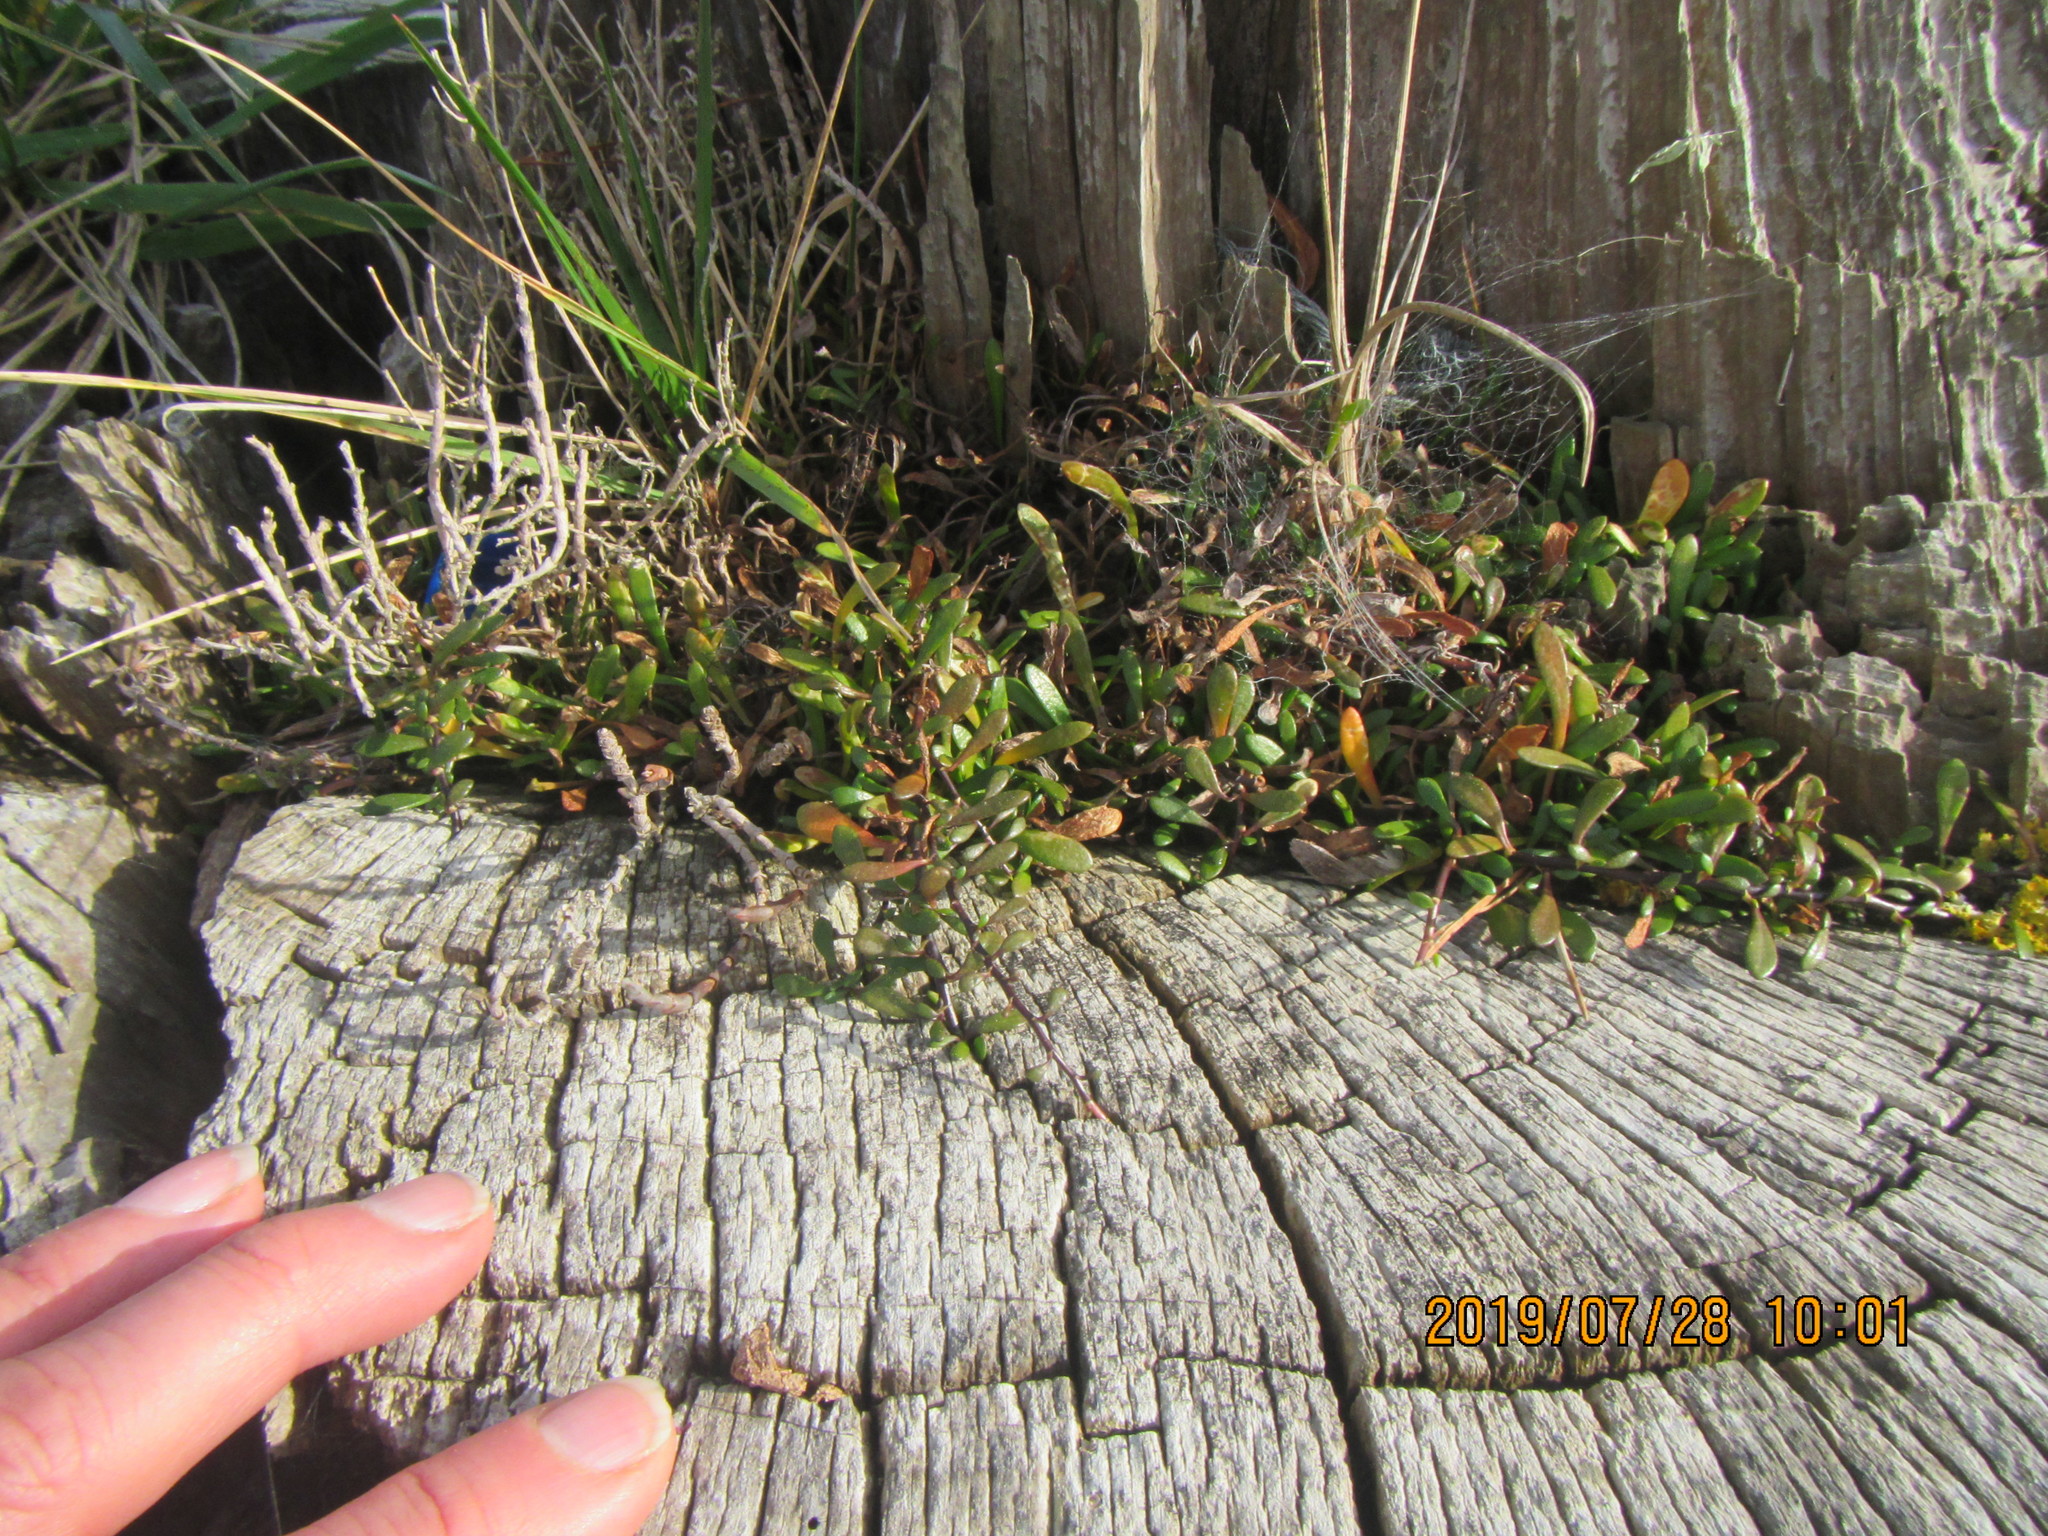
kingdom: Plantae
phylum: Tracheophyta
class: Magnoliopsida
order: Asterales
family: Goodeniaceae
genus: Goodenia
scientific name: Goodenia radicans
